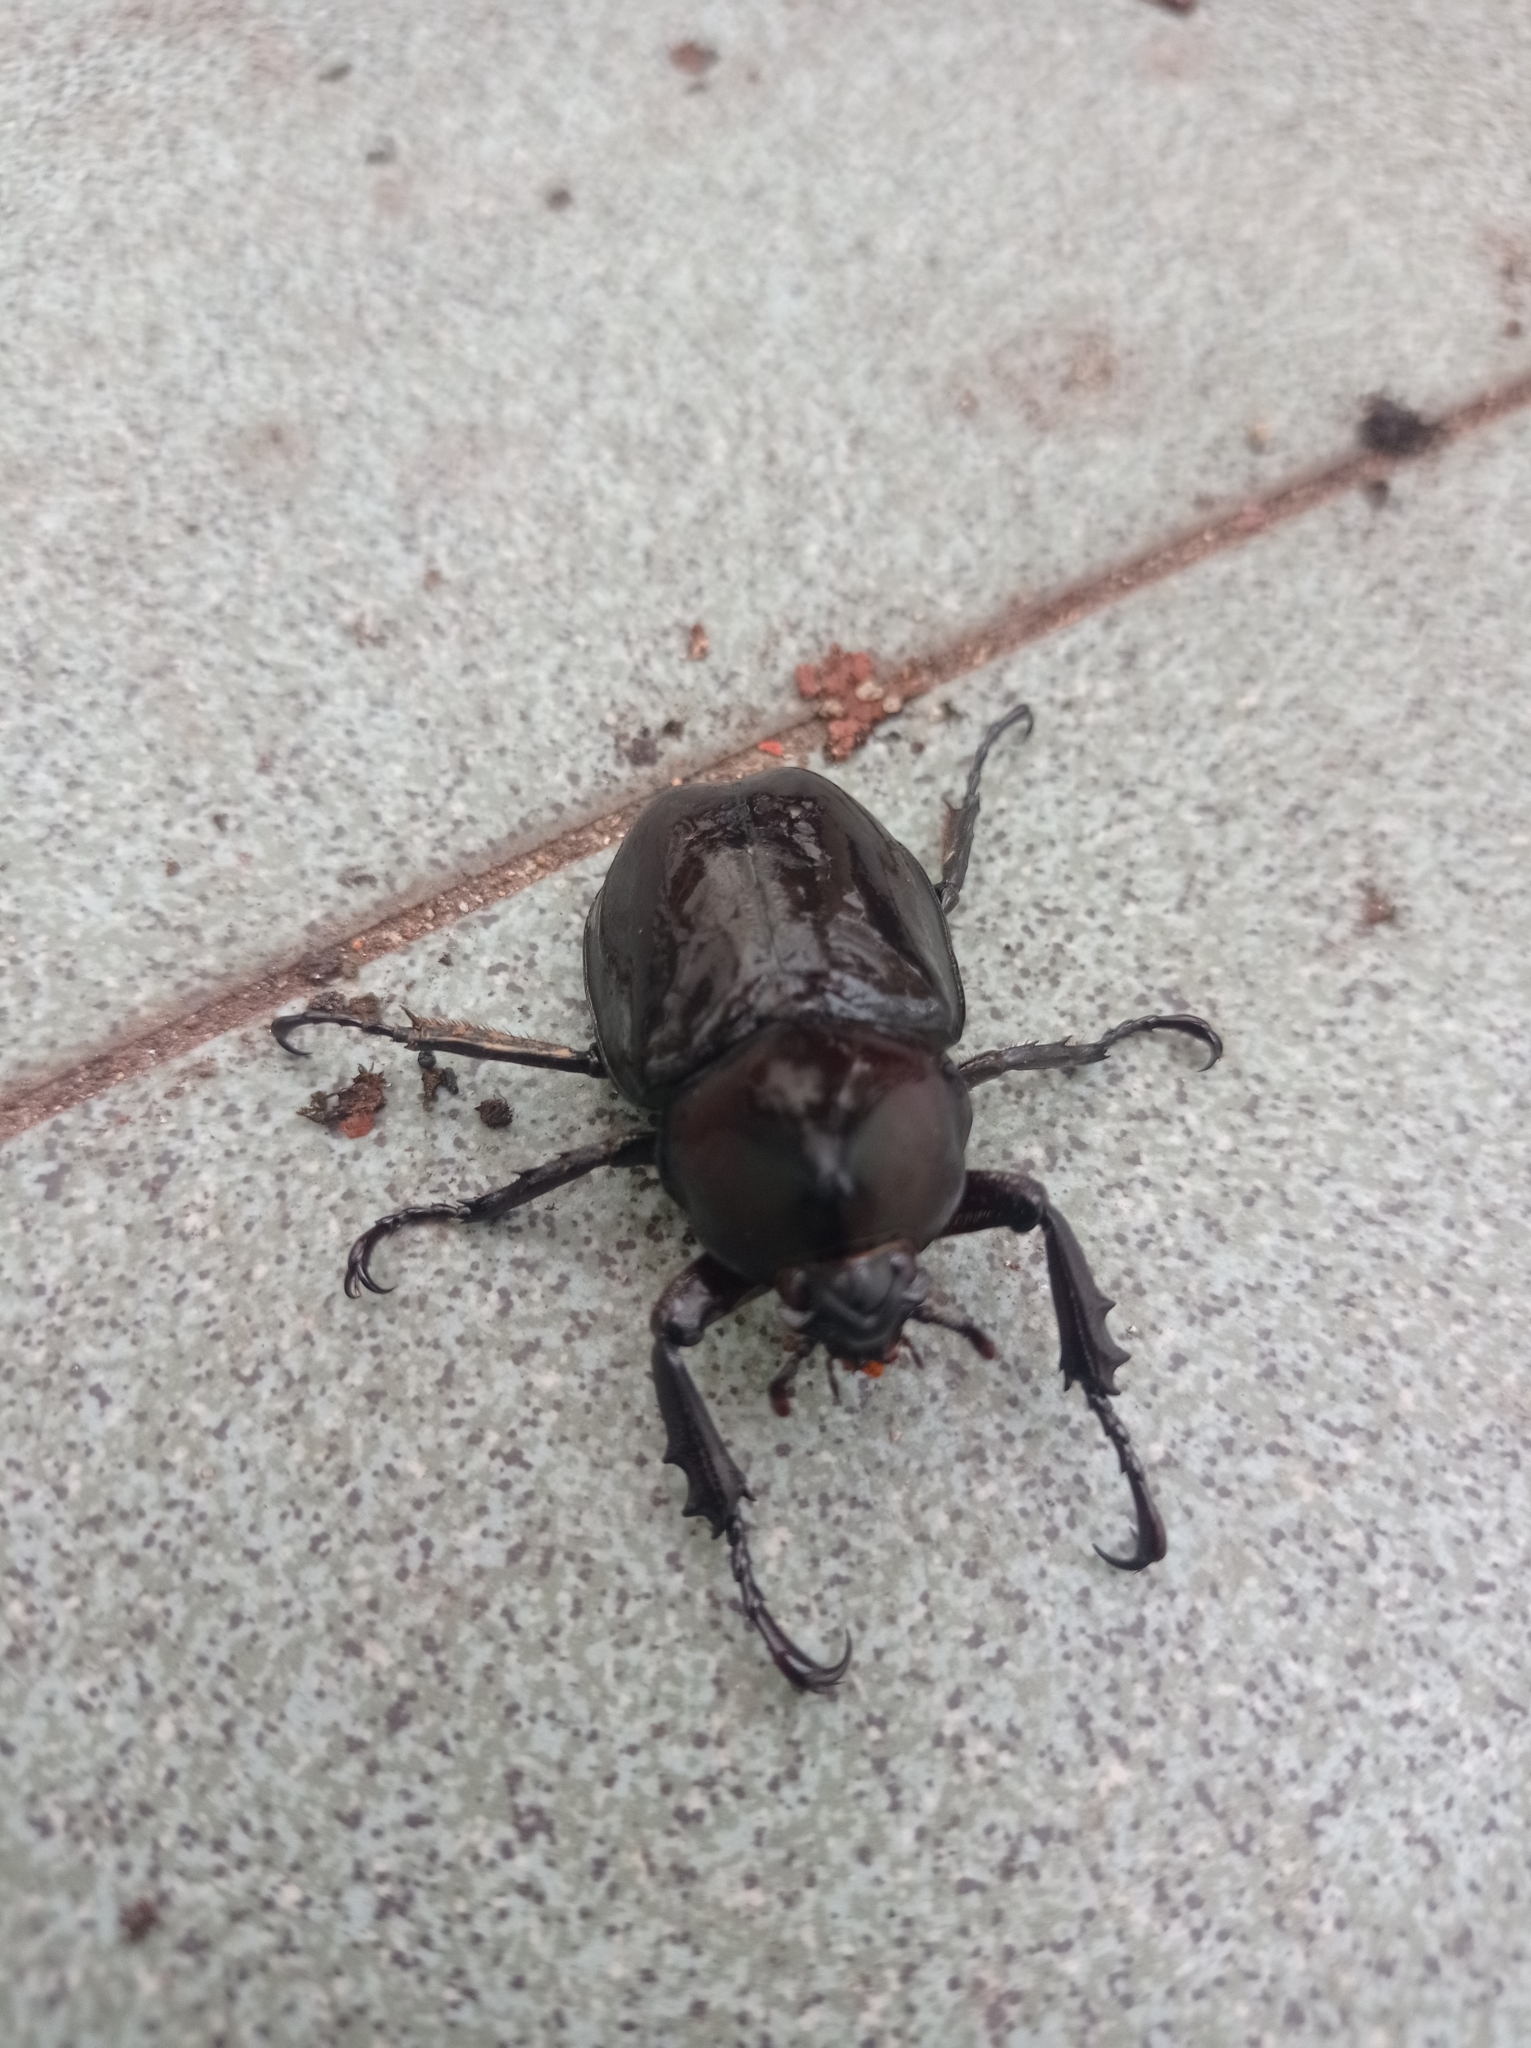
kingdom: Animalia
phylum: Arthropoda
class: Insecta
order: Coleoptera
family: Scarabaeidae
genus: Xylotrupes
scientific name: Xylotrupes socrates
